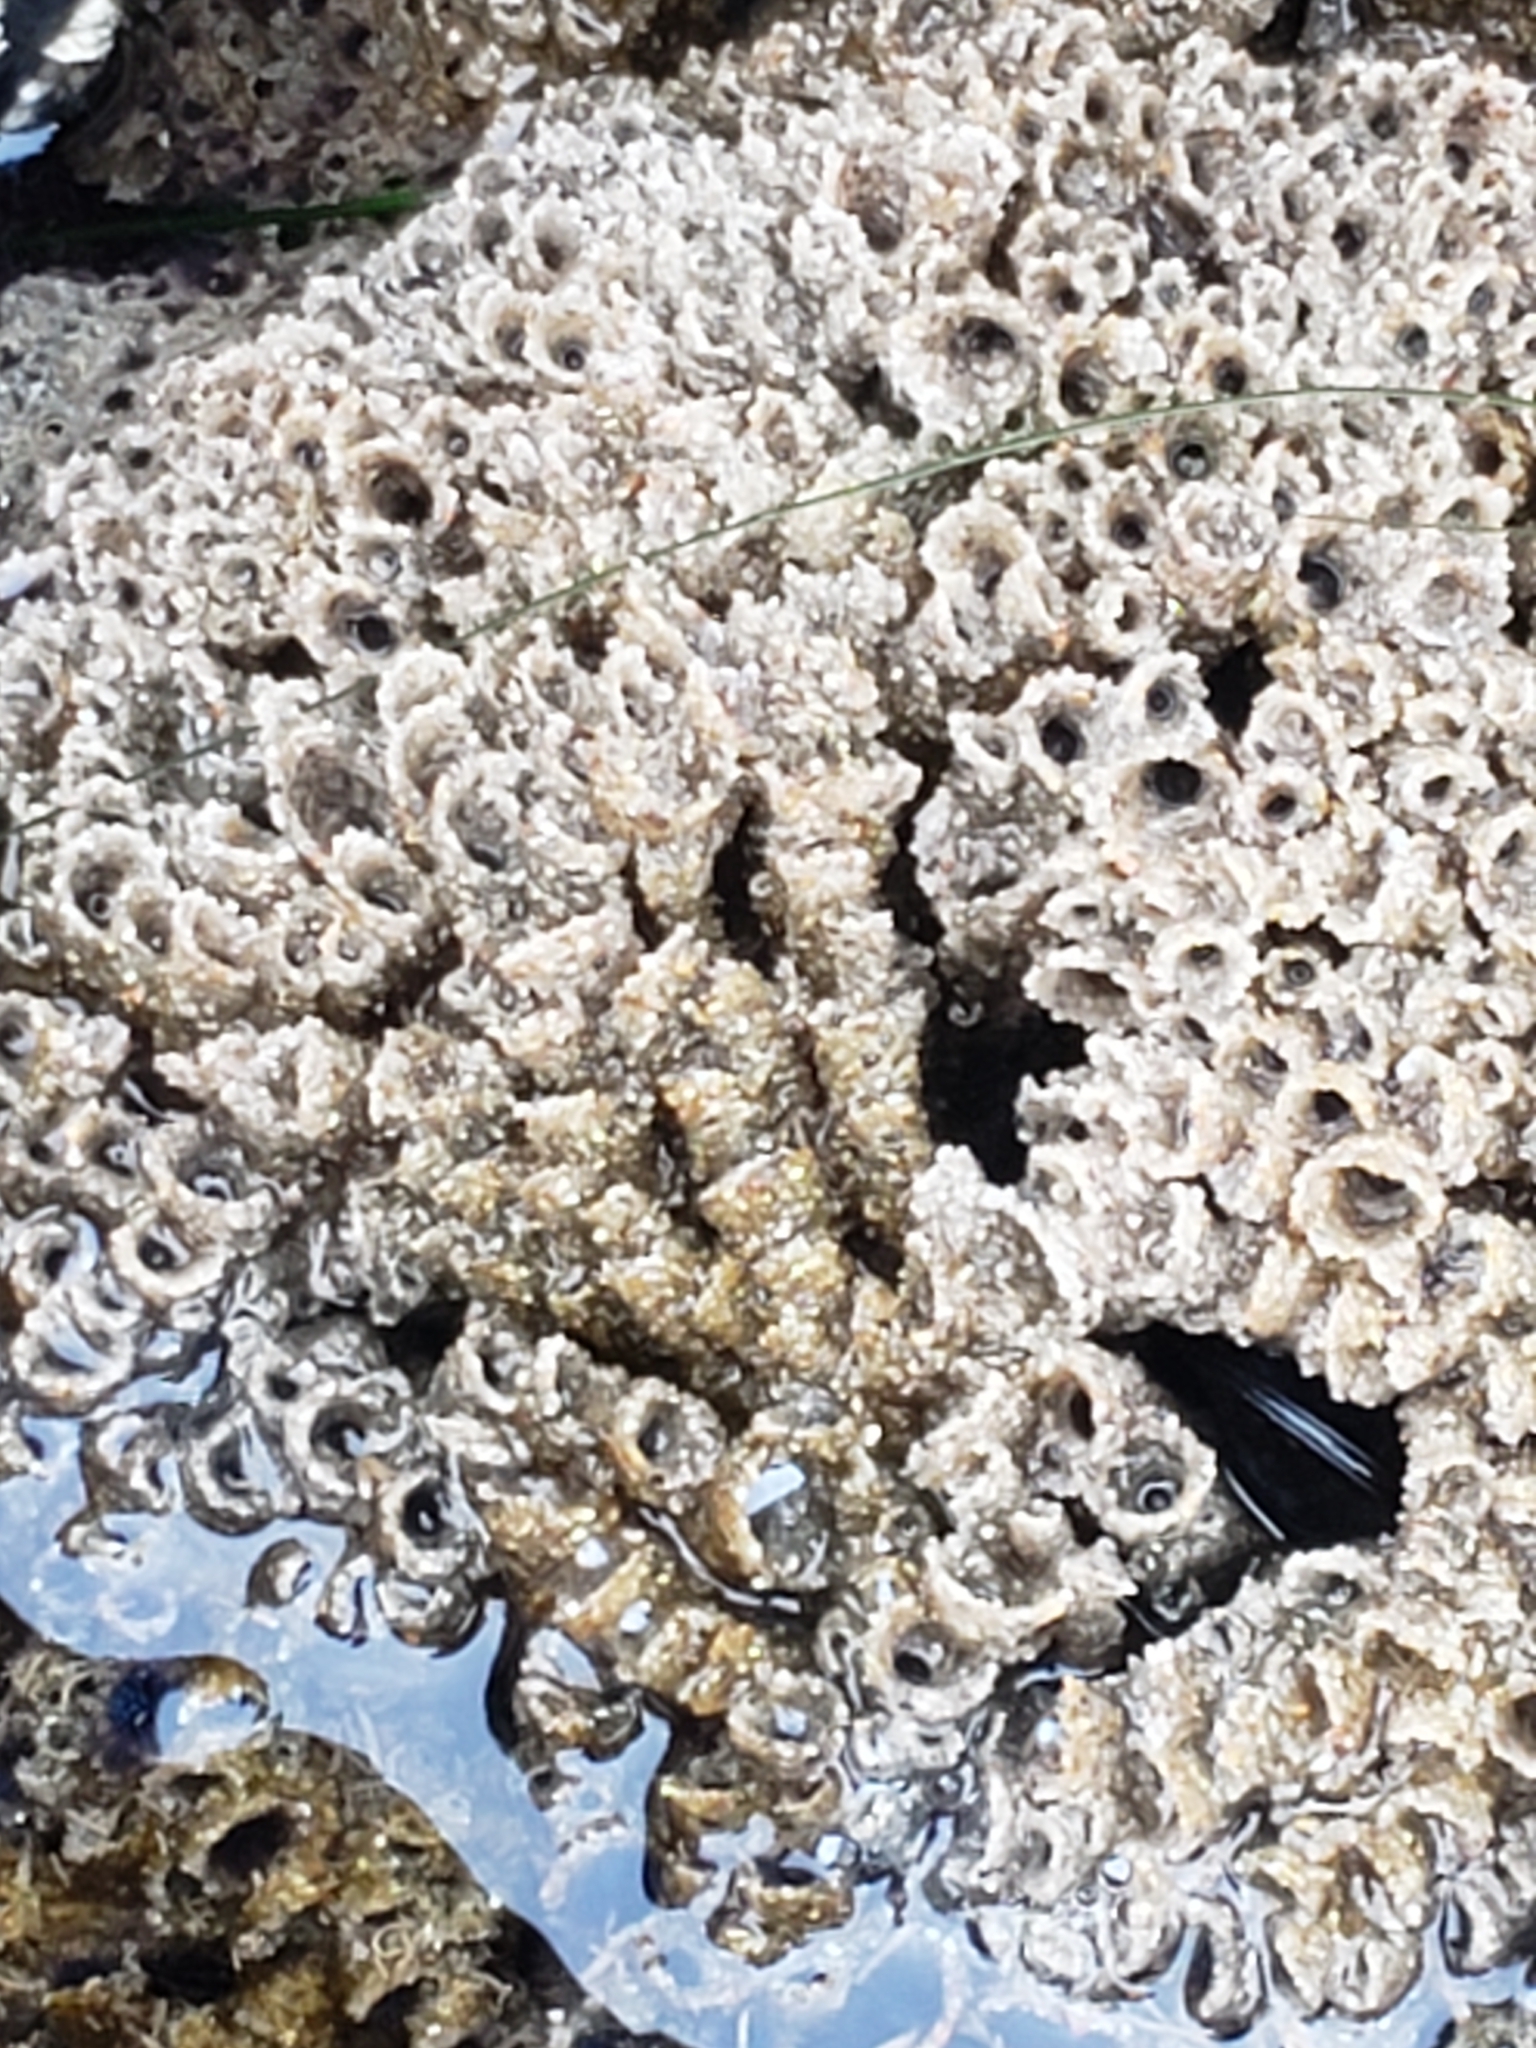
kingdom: Animalia
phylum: Annelida
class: Polychaeta
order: Sabellida
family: Sabellariidae
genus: Phragmatopoma
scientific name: Phragmatopoma californica
